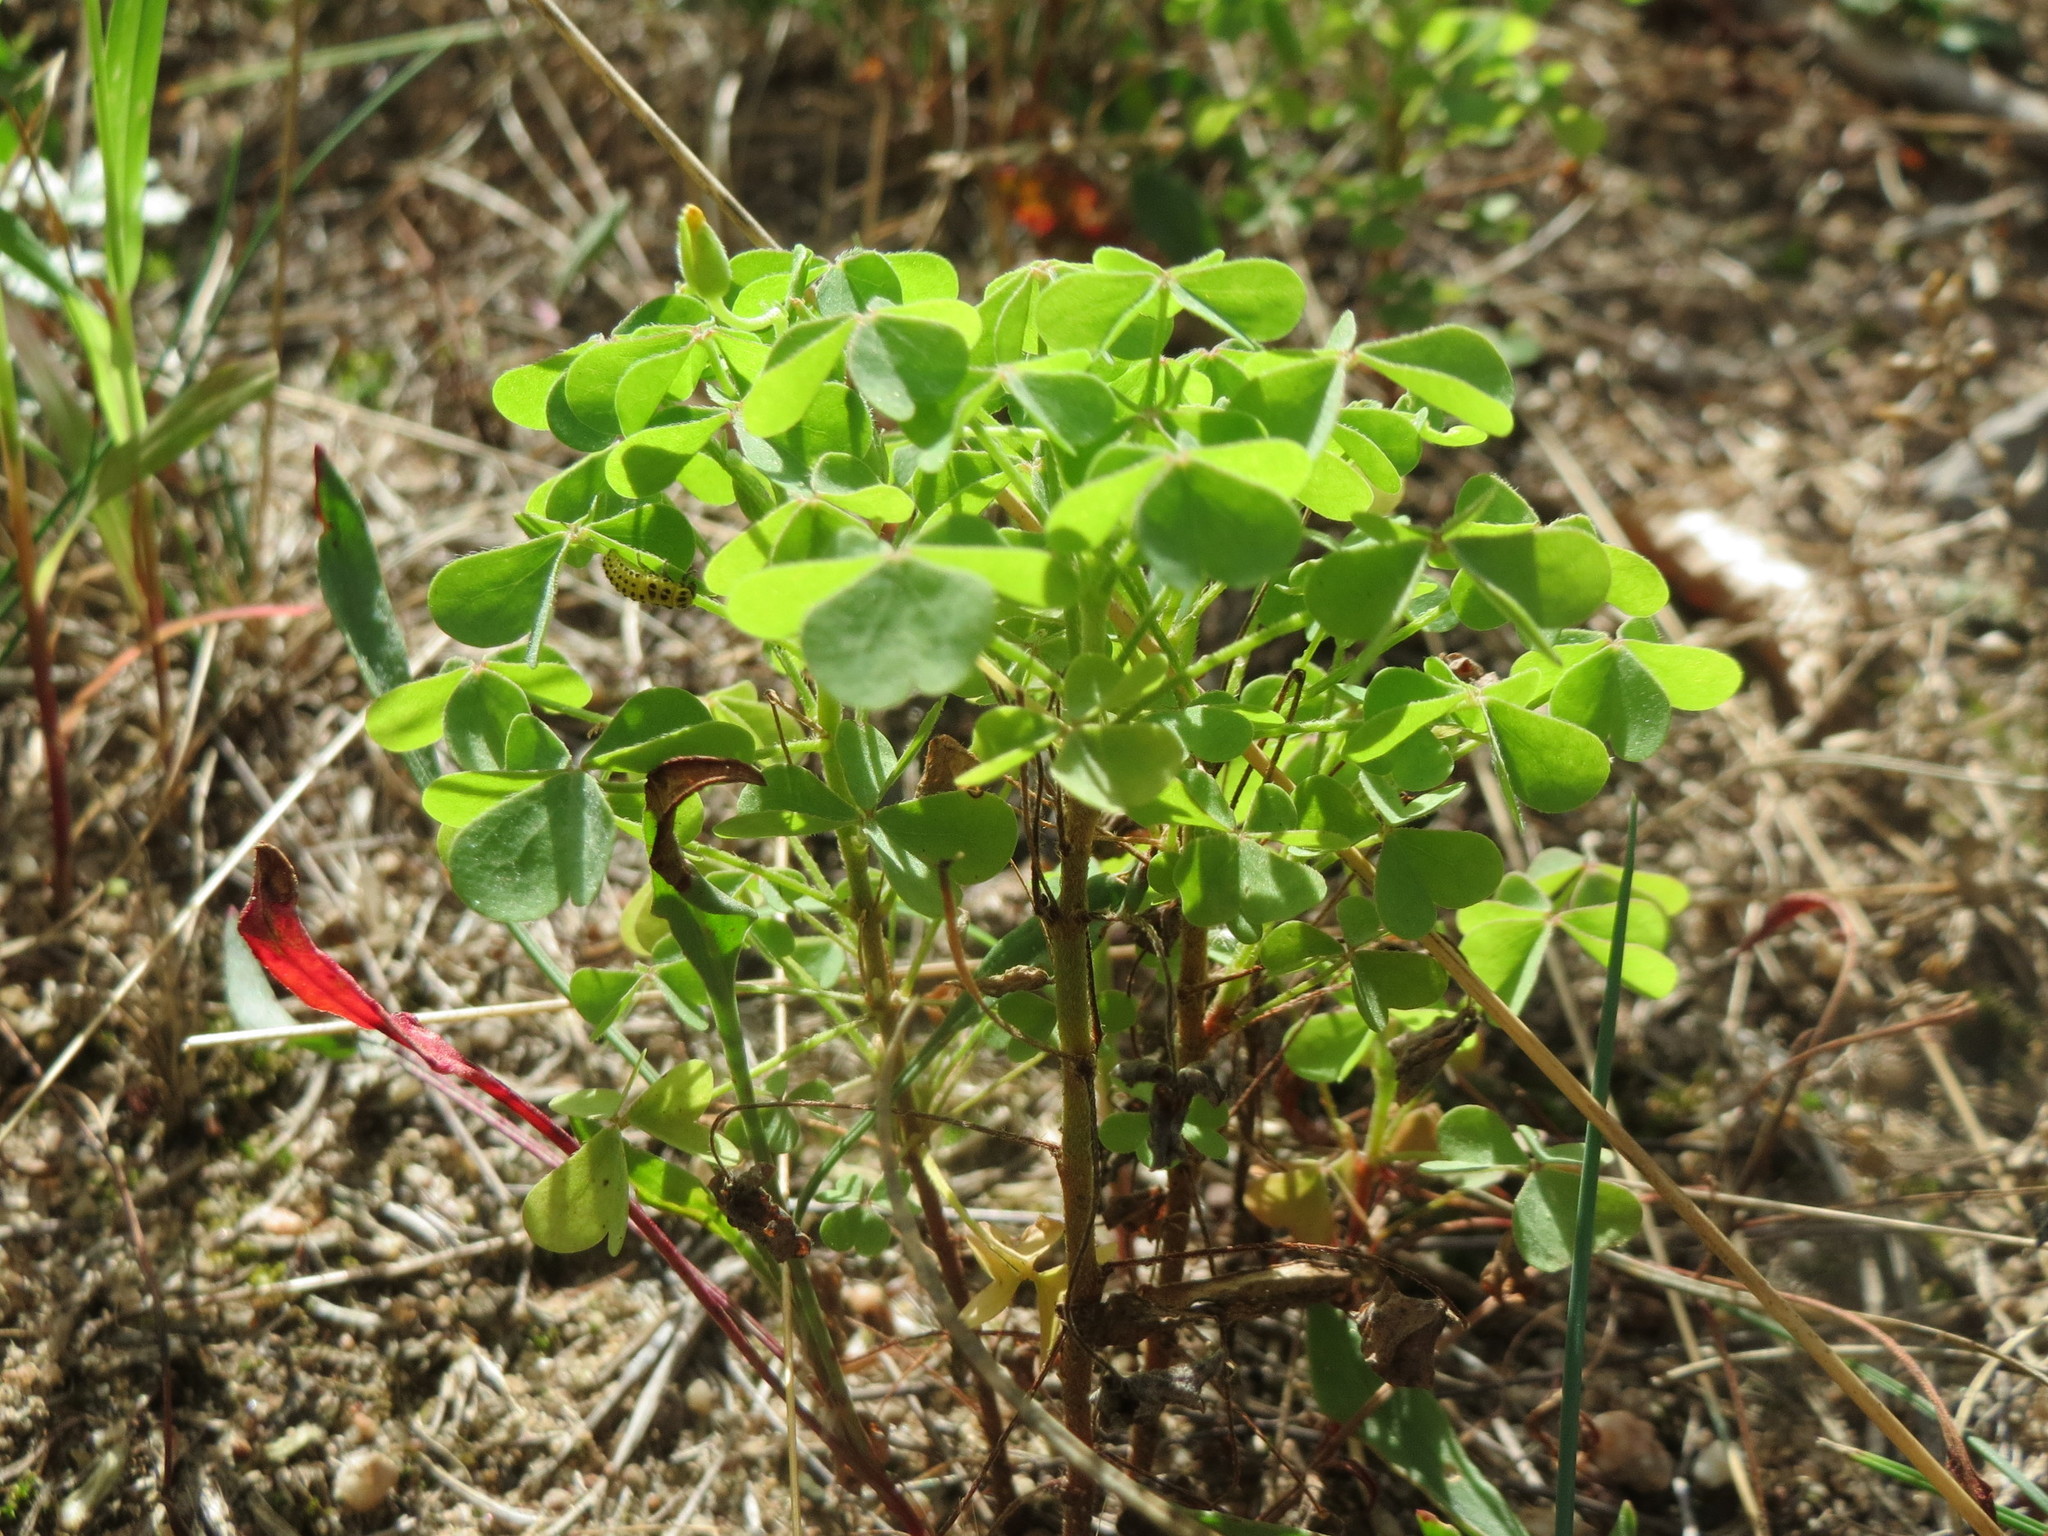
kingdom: Plantae
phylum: Tracheophyta
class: Magnoliopsida
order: Oxalidales
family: Oxalidaceae
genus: Oxalis
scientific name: Oxalis stricta
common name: Upright yellow-sorrel
